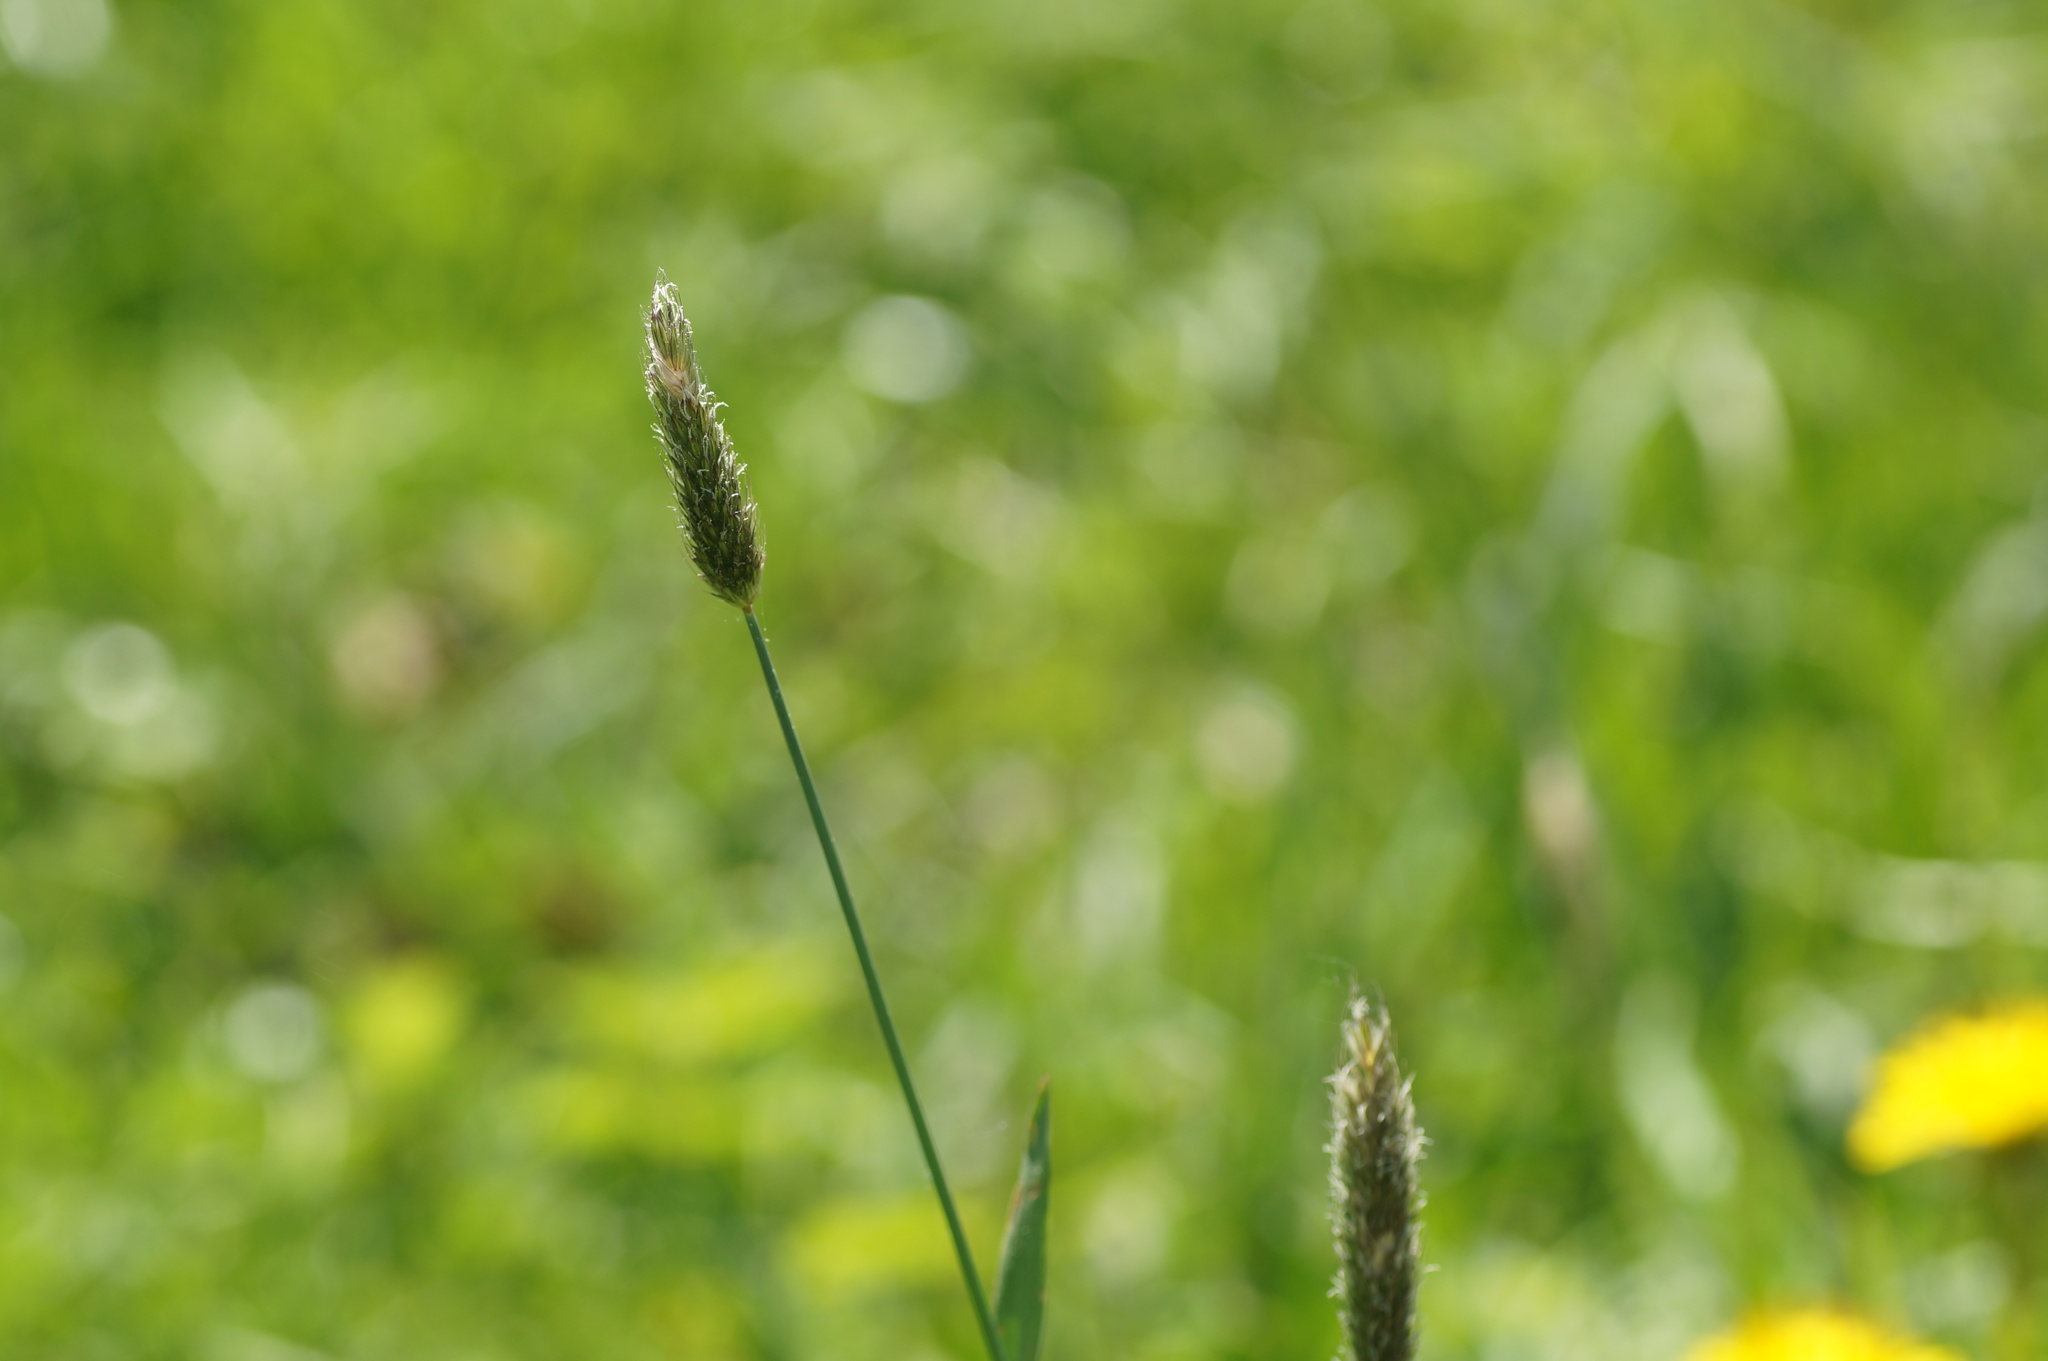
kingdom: Plantae
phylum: Tracheophyta
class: Liliopsida
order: Poales
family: Poaceae
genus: Alopecurus
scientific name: Alopecurus pratensis
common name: Meadow foxtail
